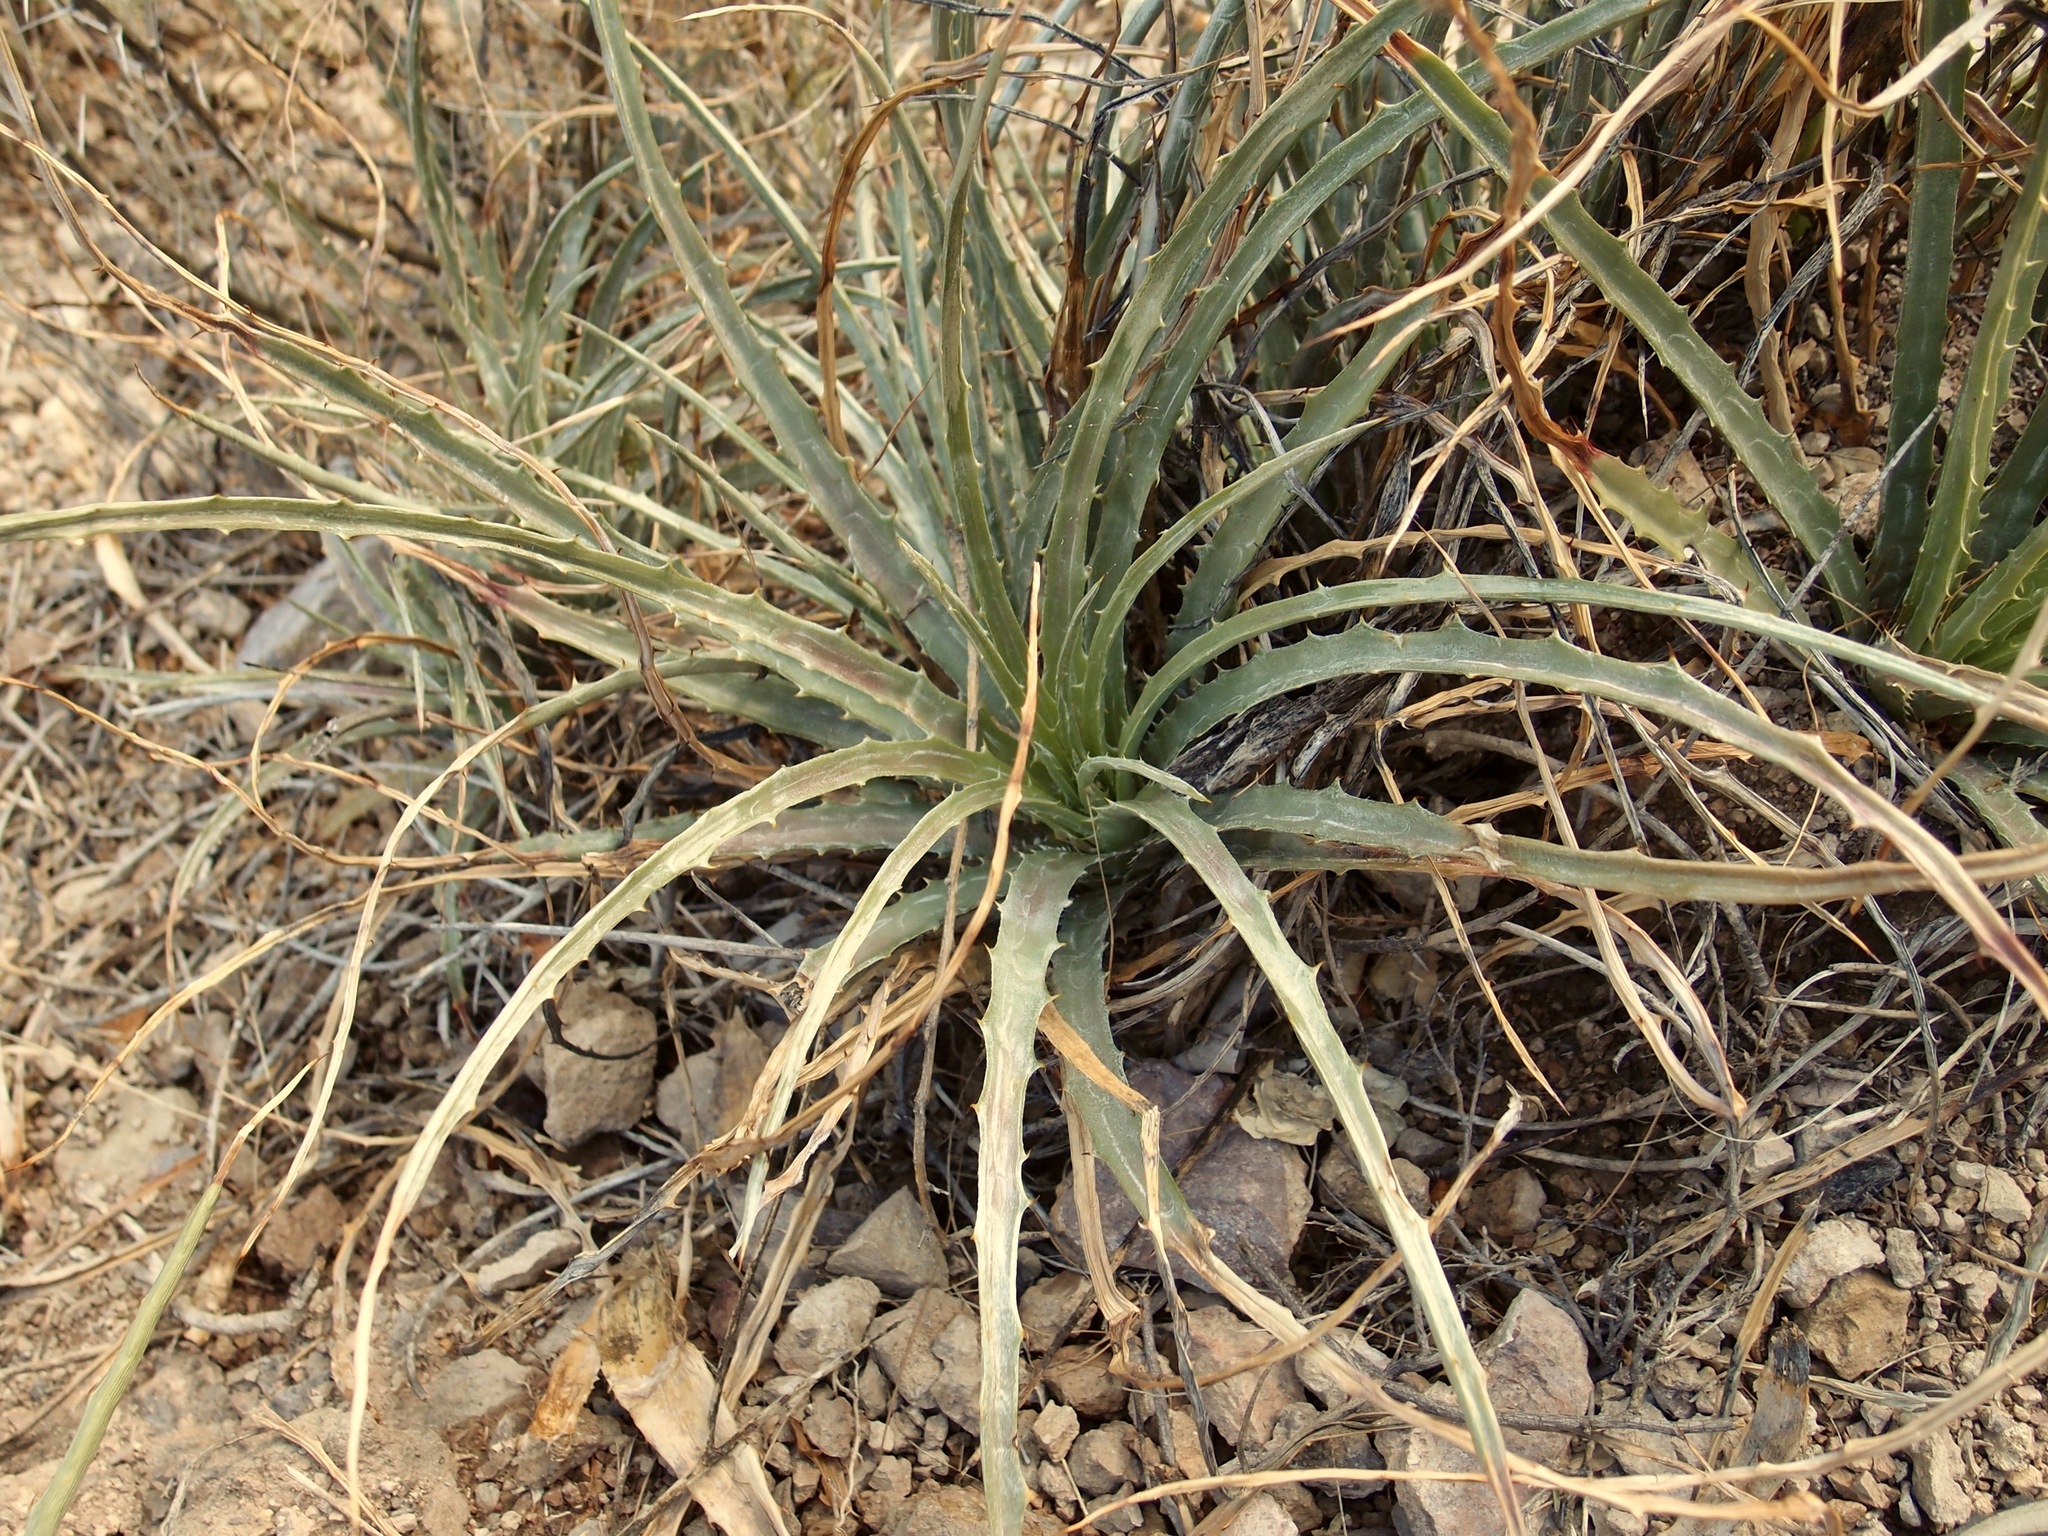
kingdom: Plantae
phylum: Tracheophyta
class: Liliopsida
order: Poales
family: Bromeliaceae
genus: Hechtia
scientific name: Hechtia montana
